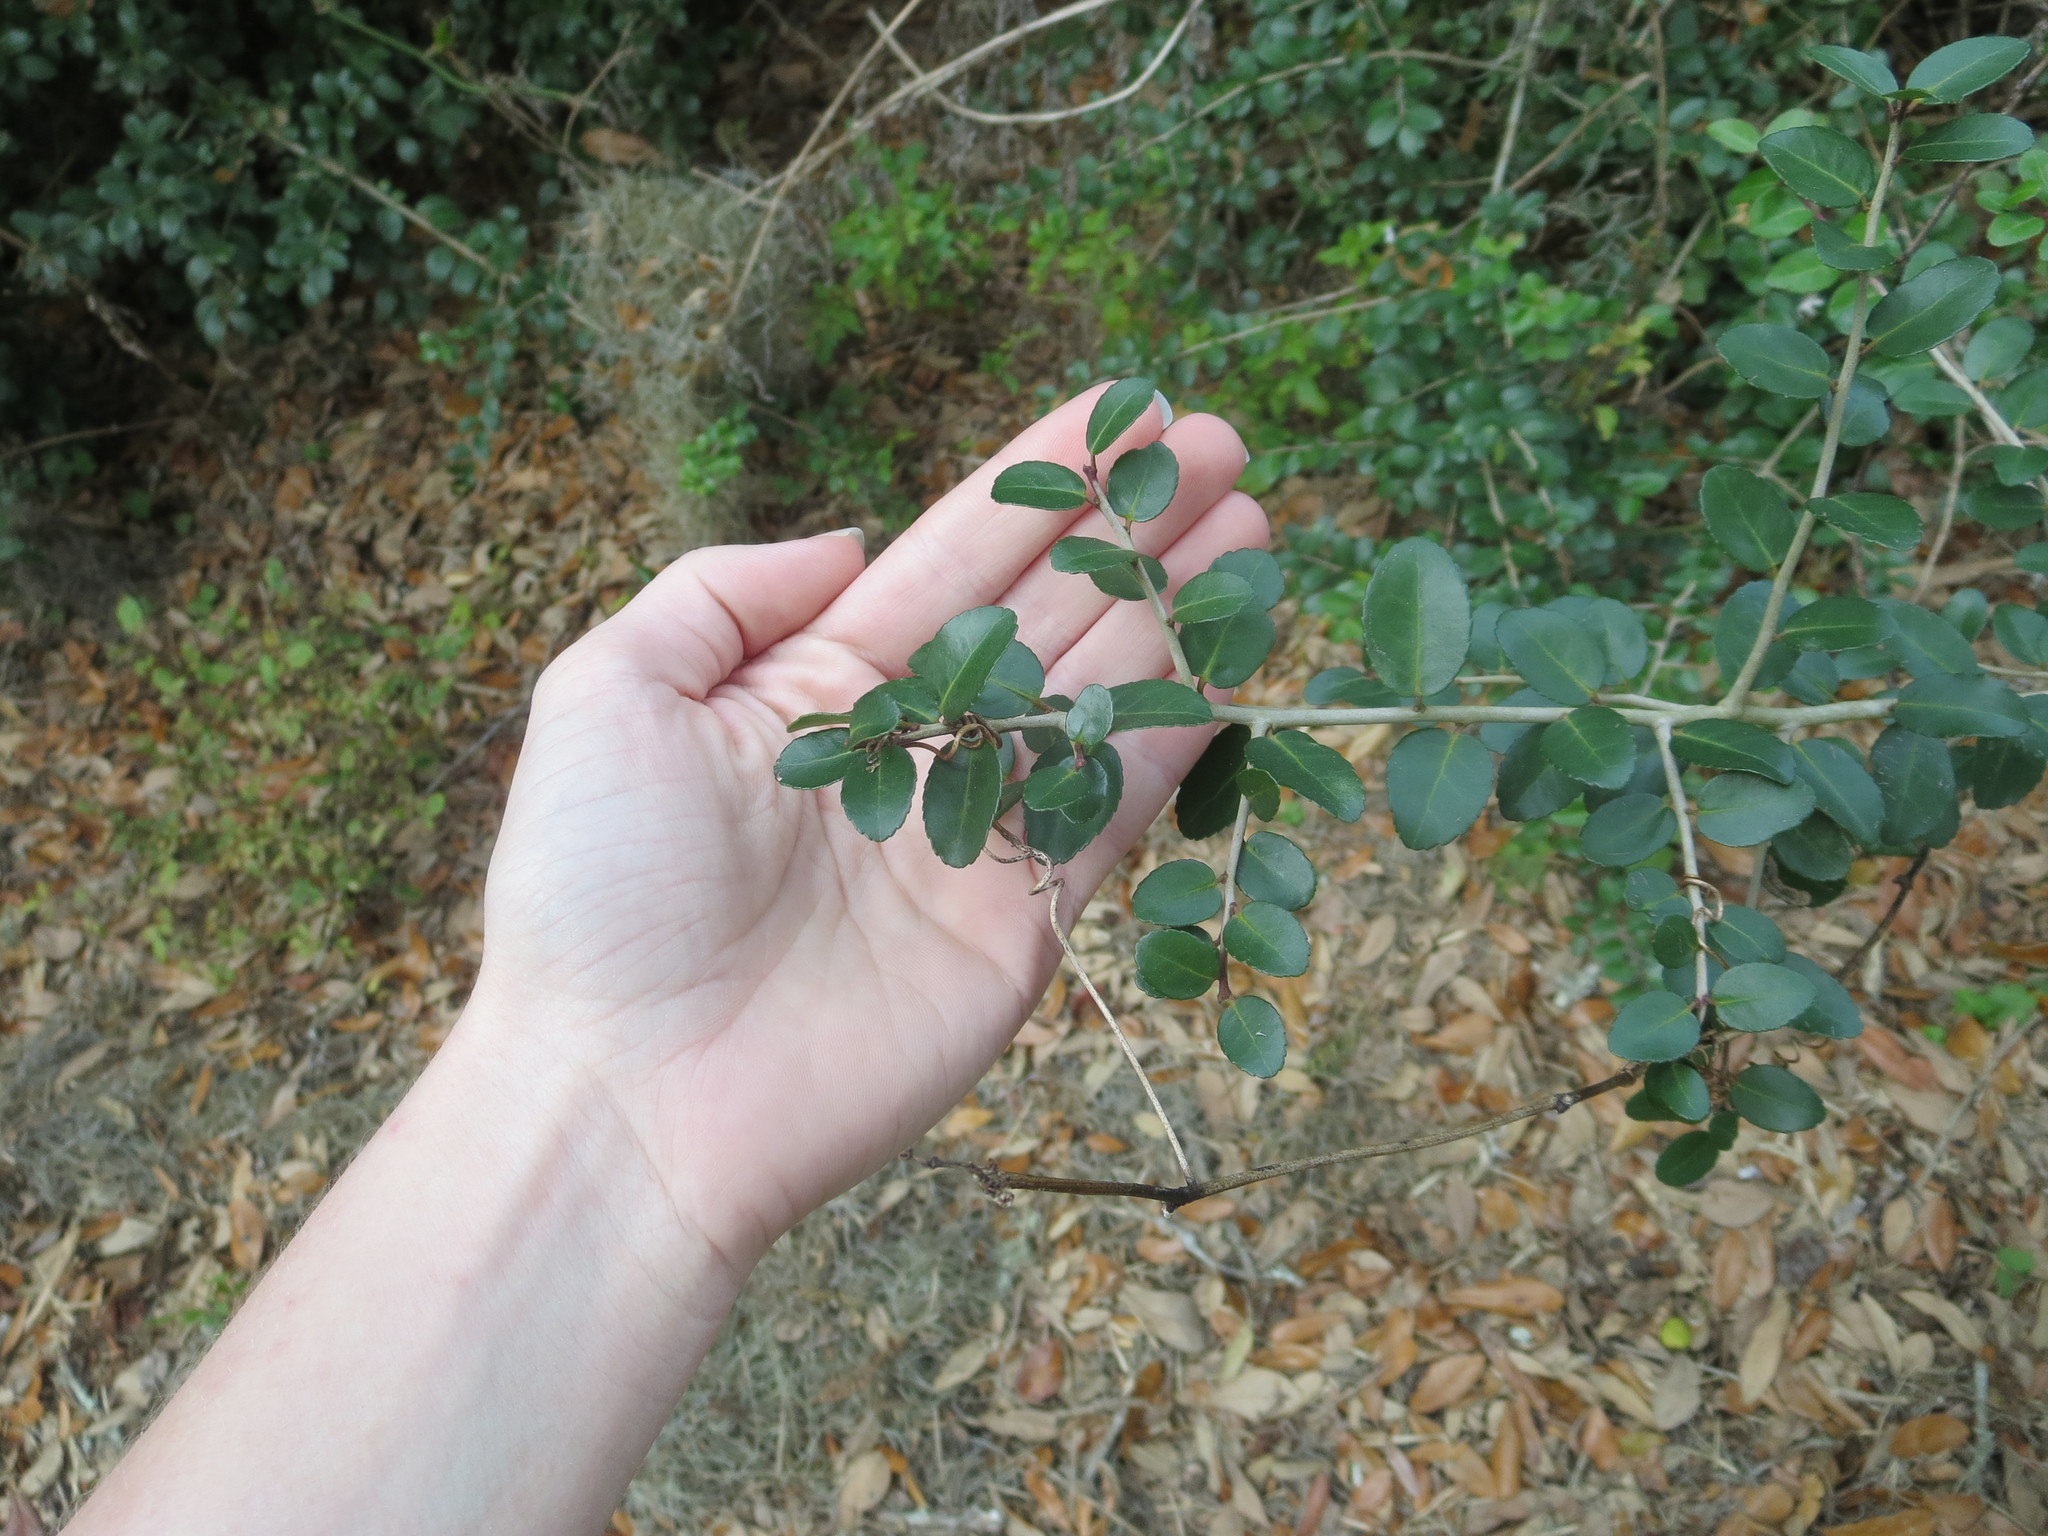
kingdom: Plantae
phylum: Tracheophyta
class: Magnoliopsida
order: Aquifoliales
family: Aquifoliaceae
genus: Ilex
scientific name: Ilex vomitoria
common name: Yaupon holly
